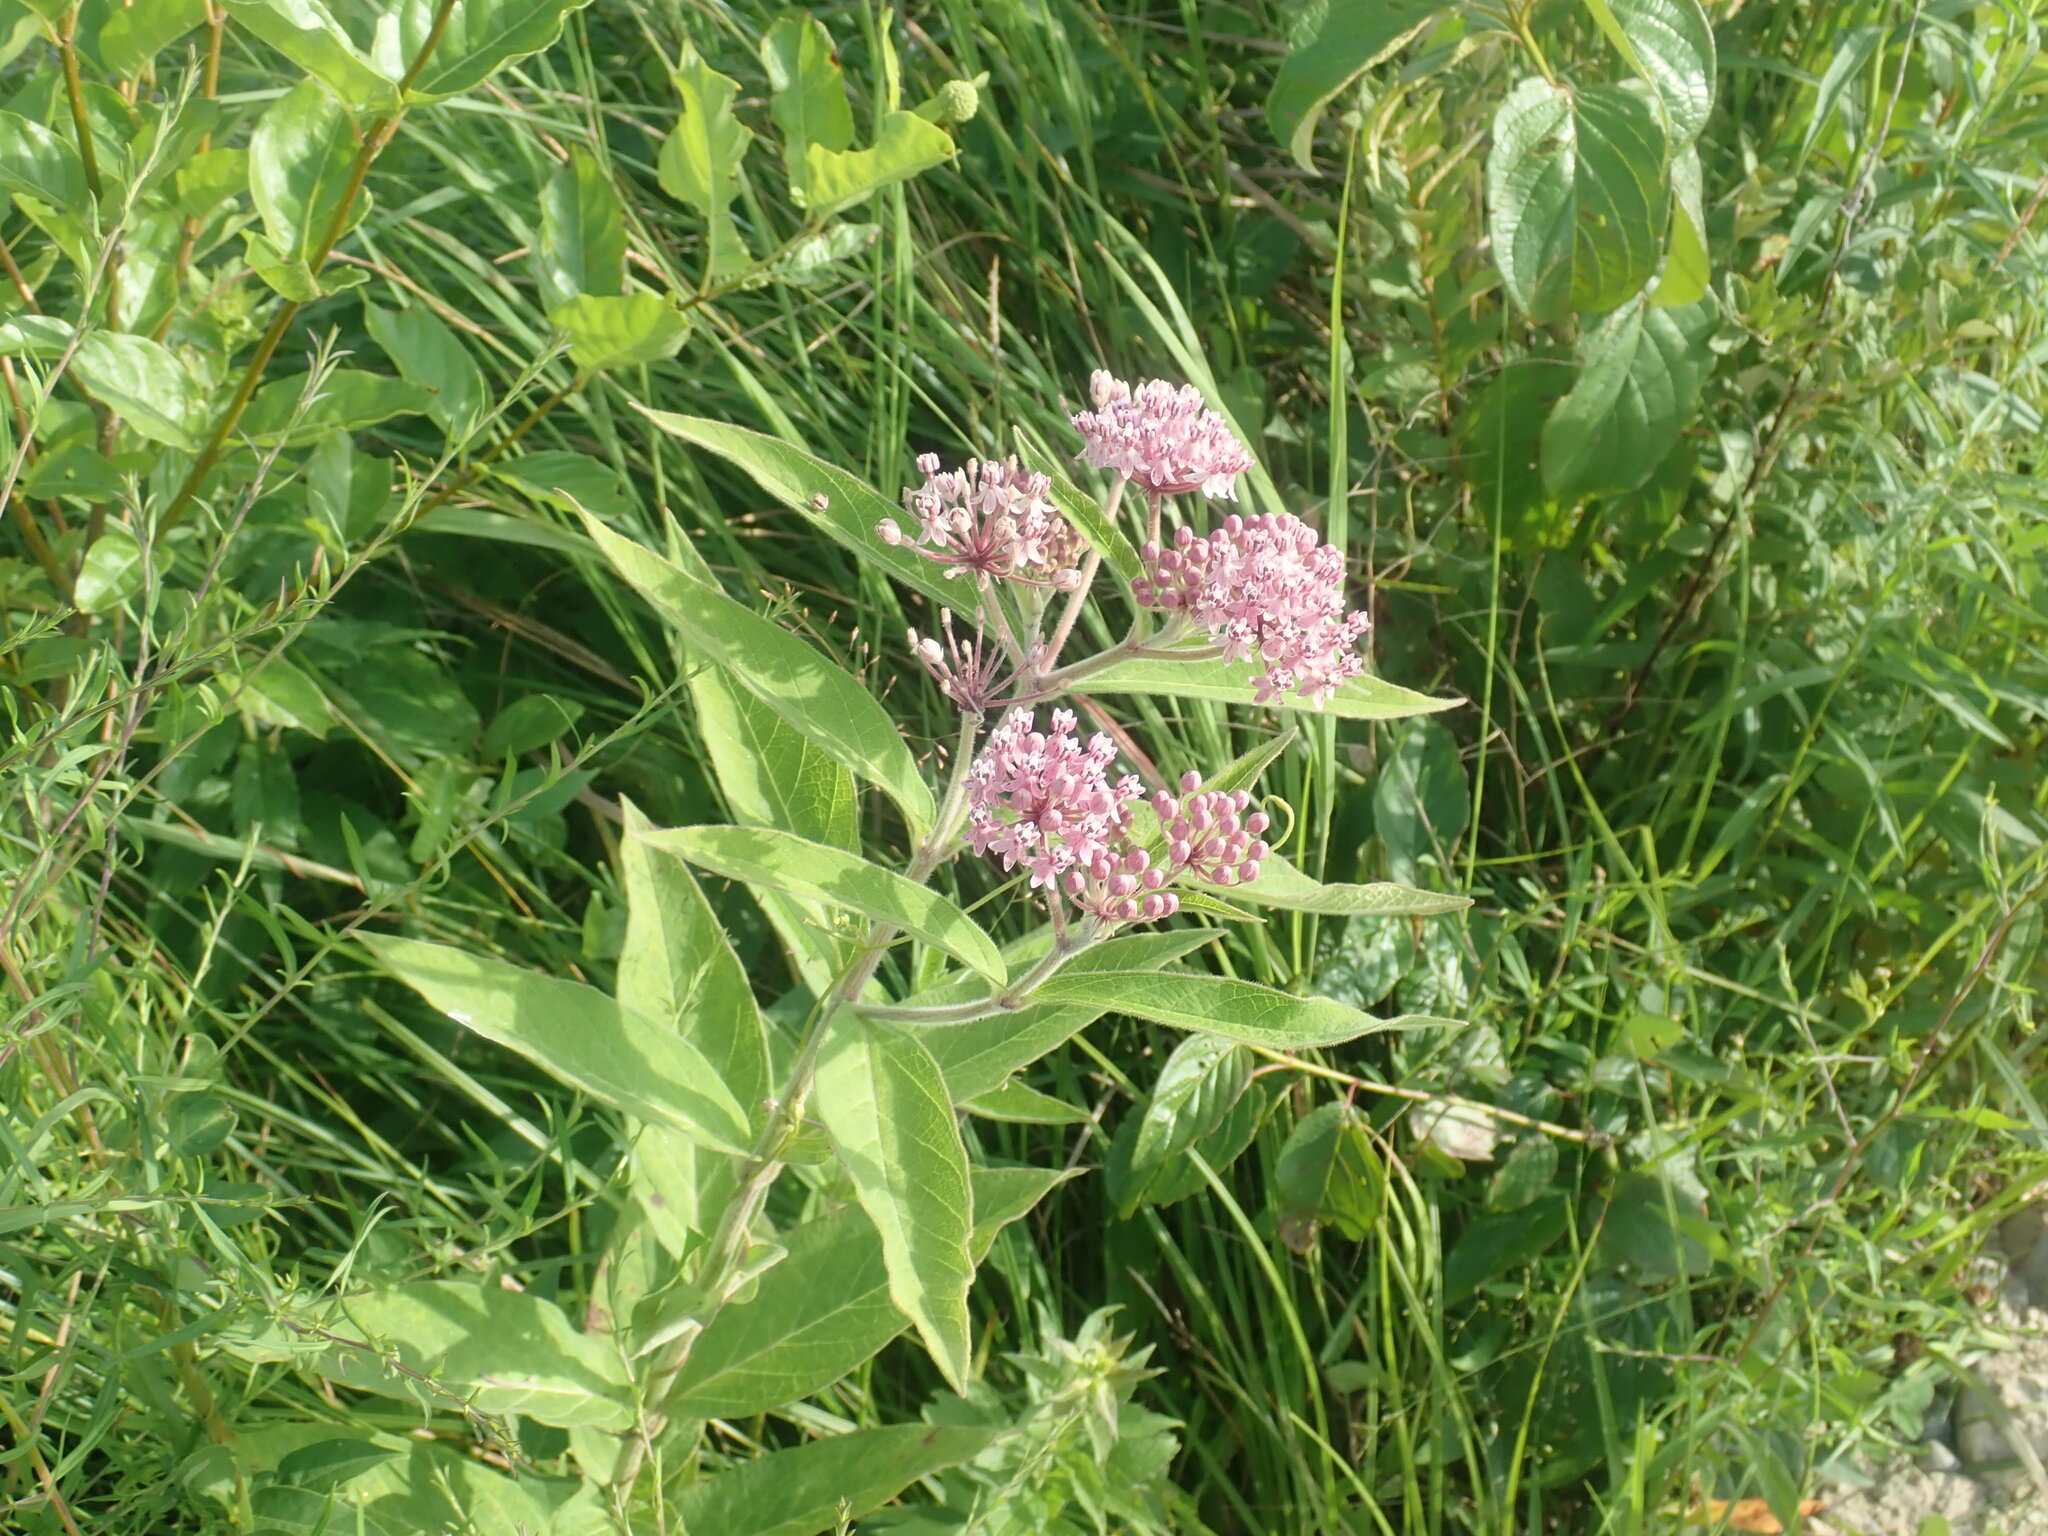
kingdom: Plantae
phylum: Tracheophyta
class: Magnoliopsida
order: Gentianales
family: Apocynaceae
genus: Asclepias
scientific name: Asclepias incarnata
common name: Swamp milkweed
